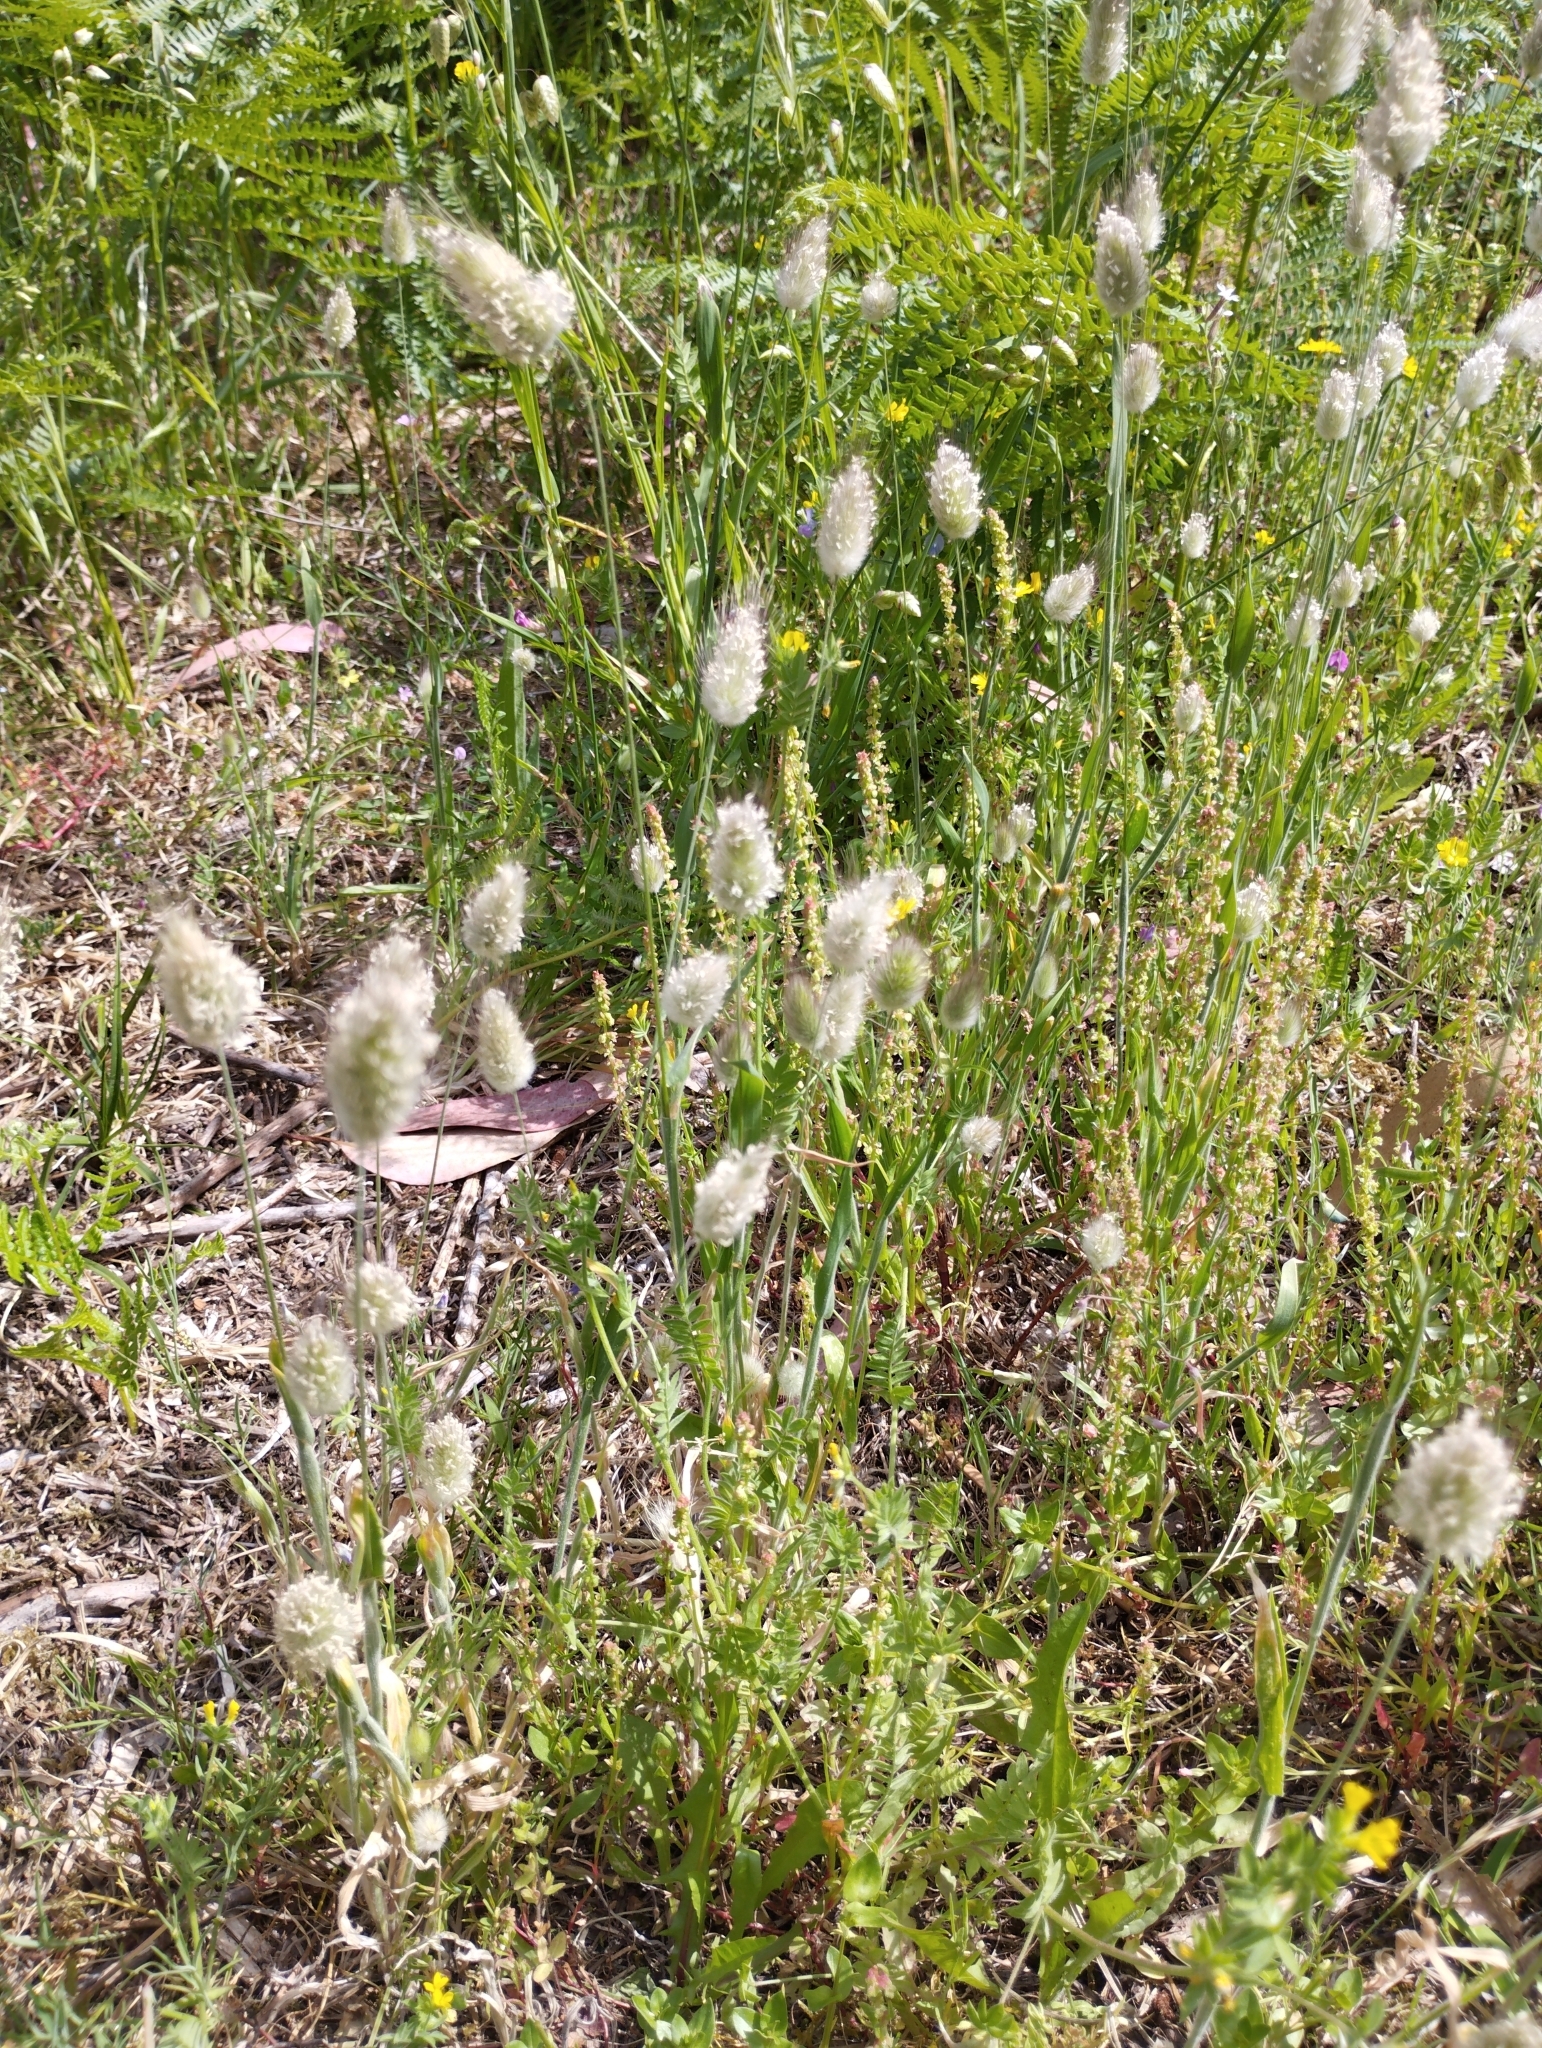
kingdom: Plantae
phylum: Tracheophyta
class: Liliopsida
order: Poales
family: Poaceae
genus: Lagurus
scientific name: Lagurus ovatus
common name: Hare's-tail
